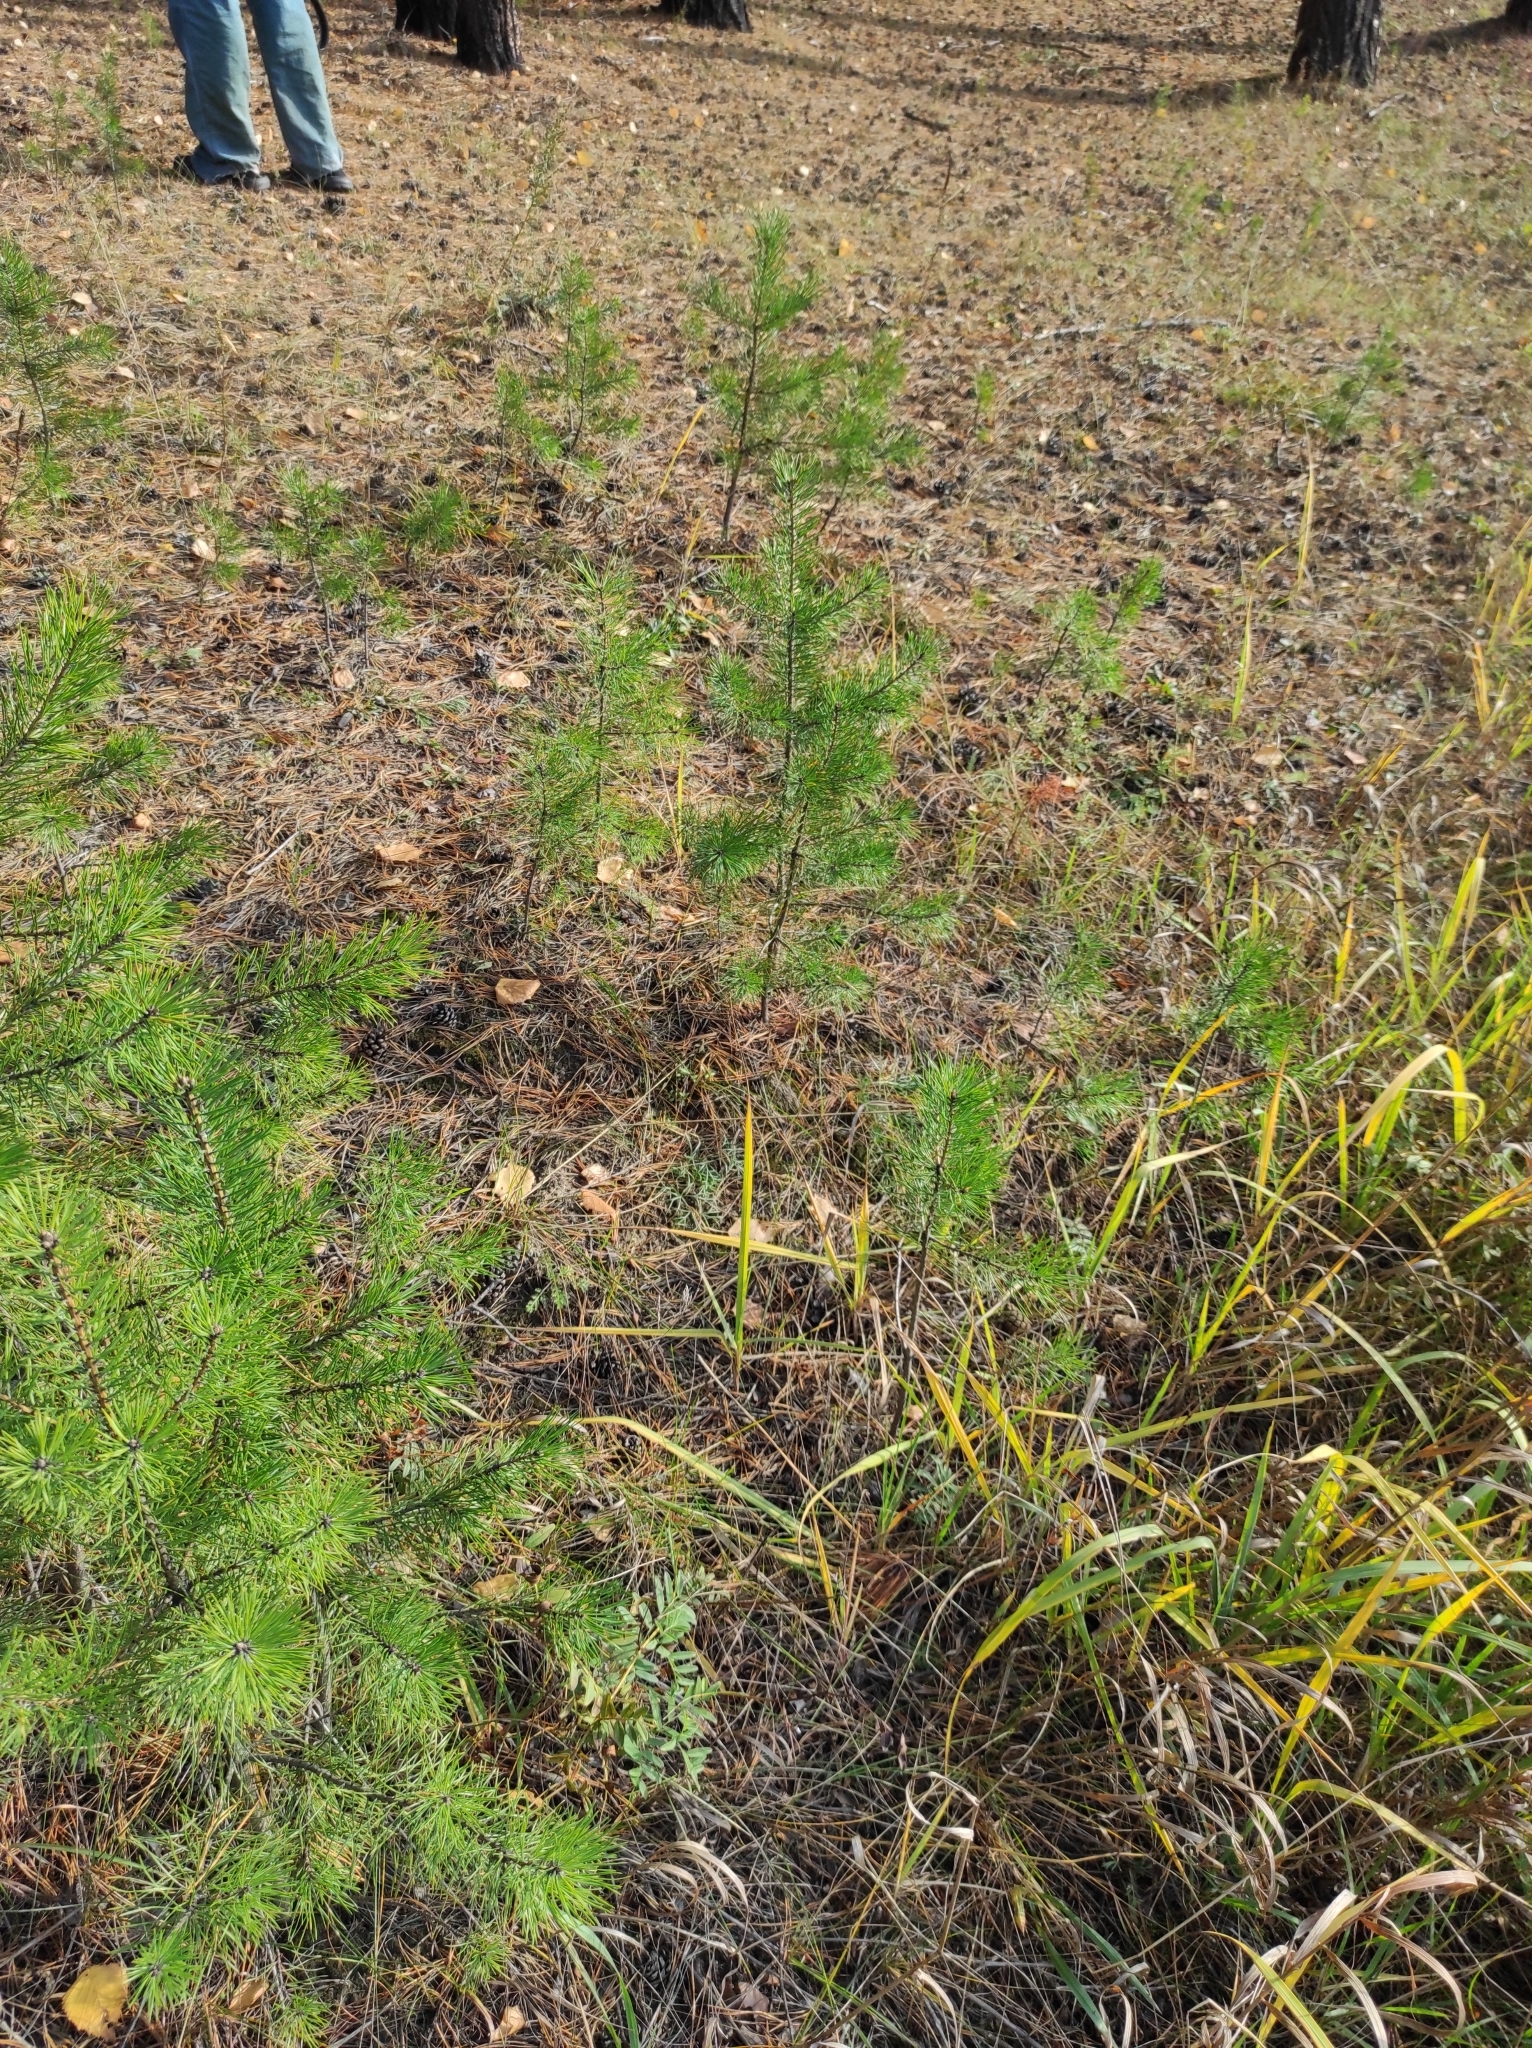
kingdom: Plantae
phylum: Tracheophyta
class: Pinopsida
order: Pinales
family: Pinaceae
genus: Pinus
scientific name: Pinus sylvestris
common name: Scots pine
